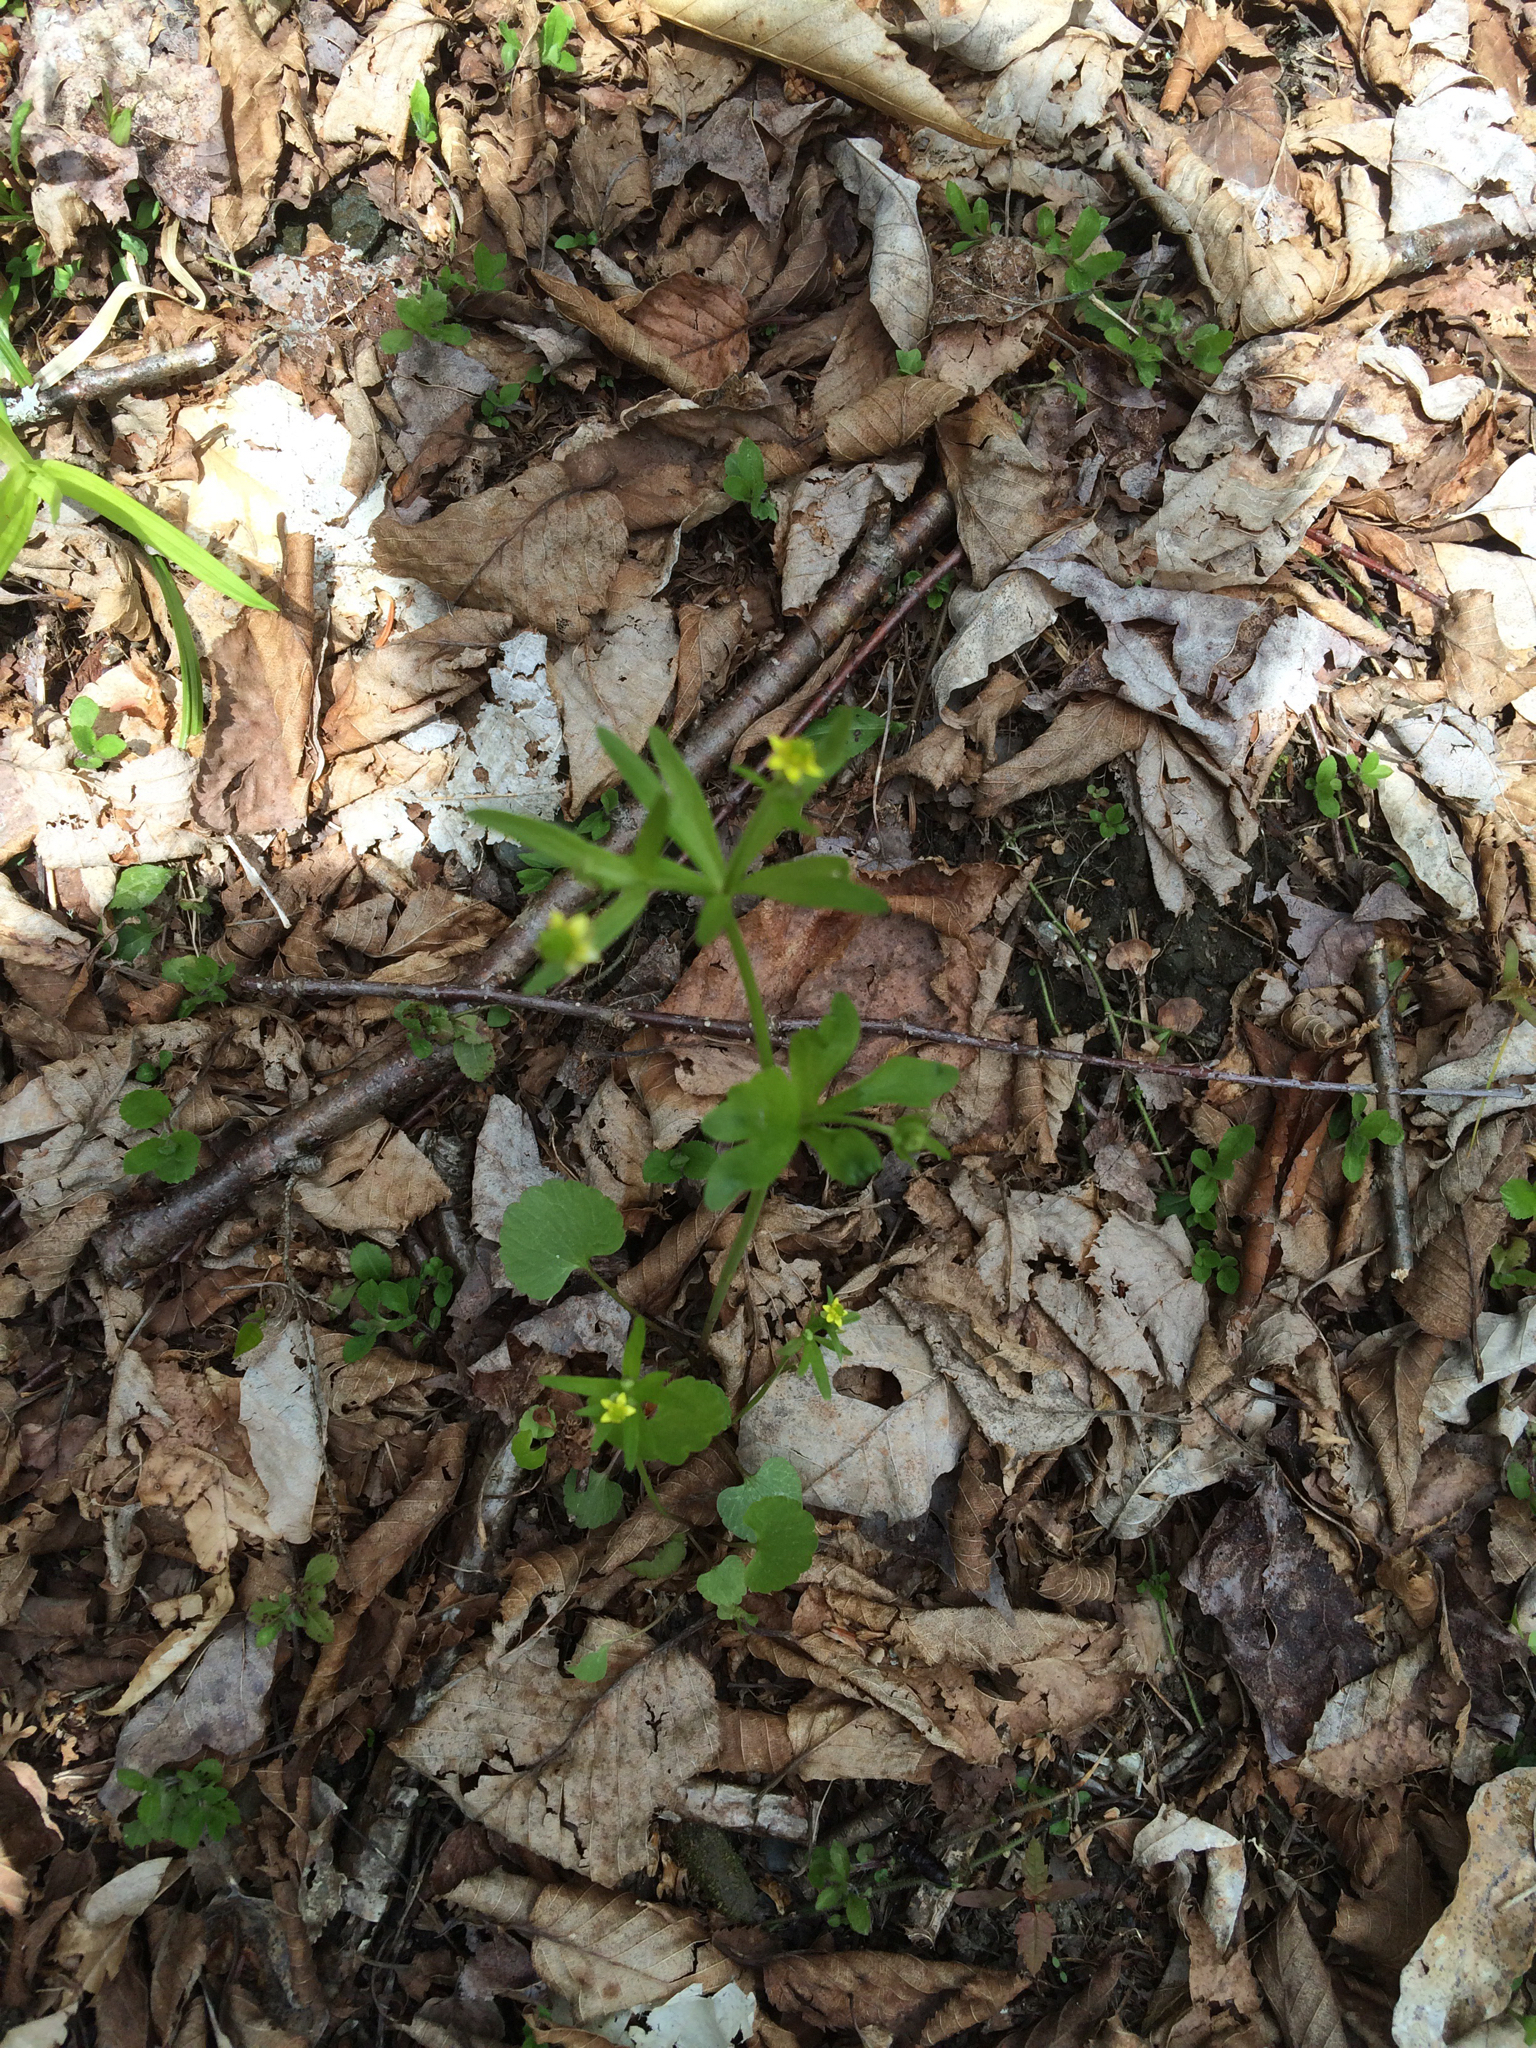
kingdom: Plantae
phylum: Tracheophyta
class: Magnoliopsida
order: Ranunculales
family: Ranunculaceae
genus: Ranunculus
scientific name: Ranunculus abortivus
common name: Early wood buttercup
